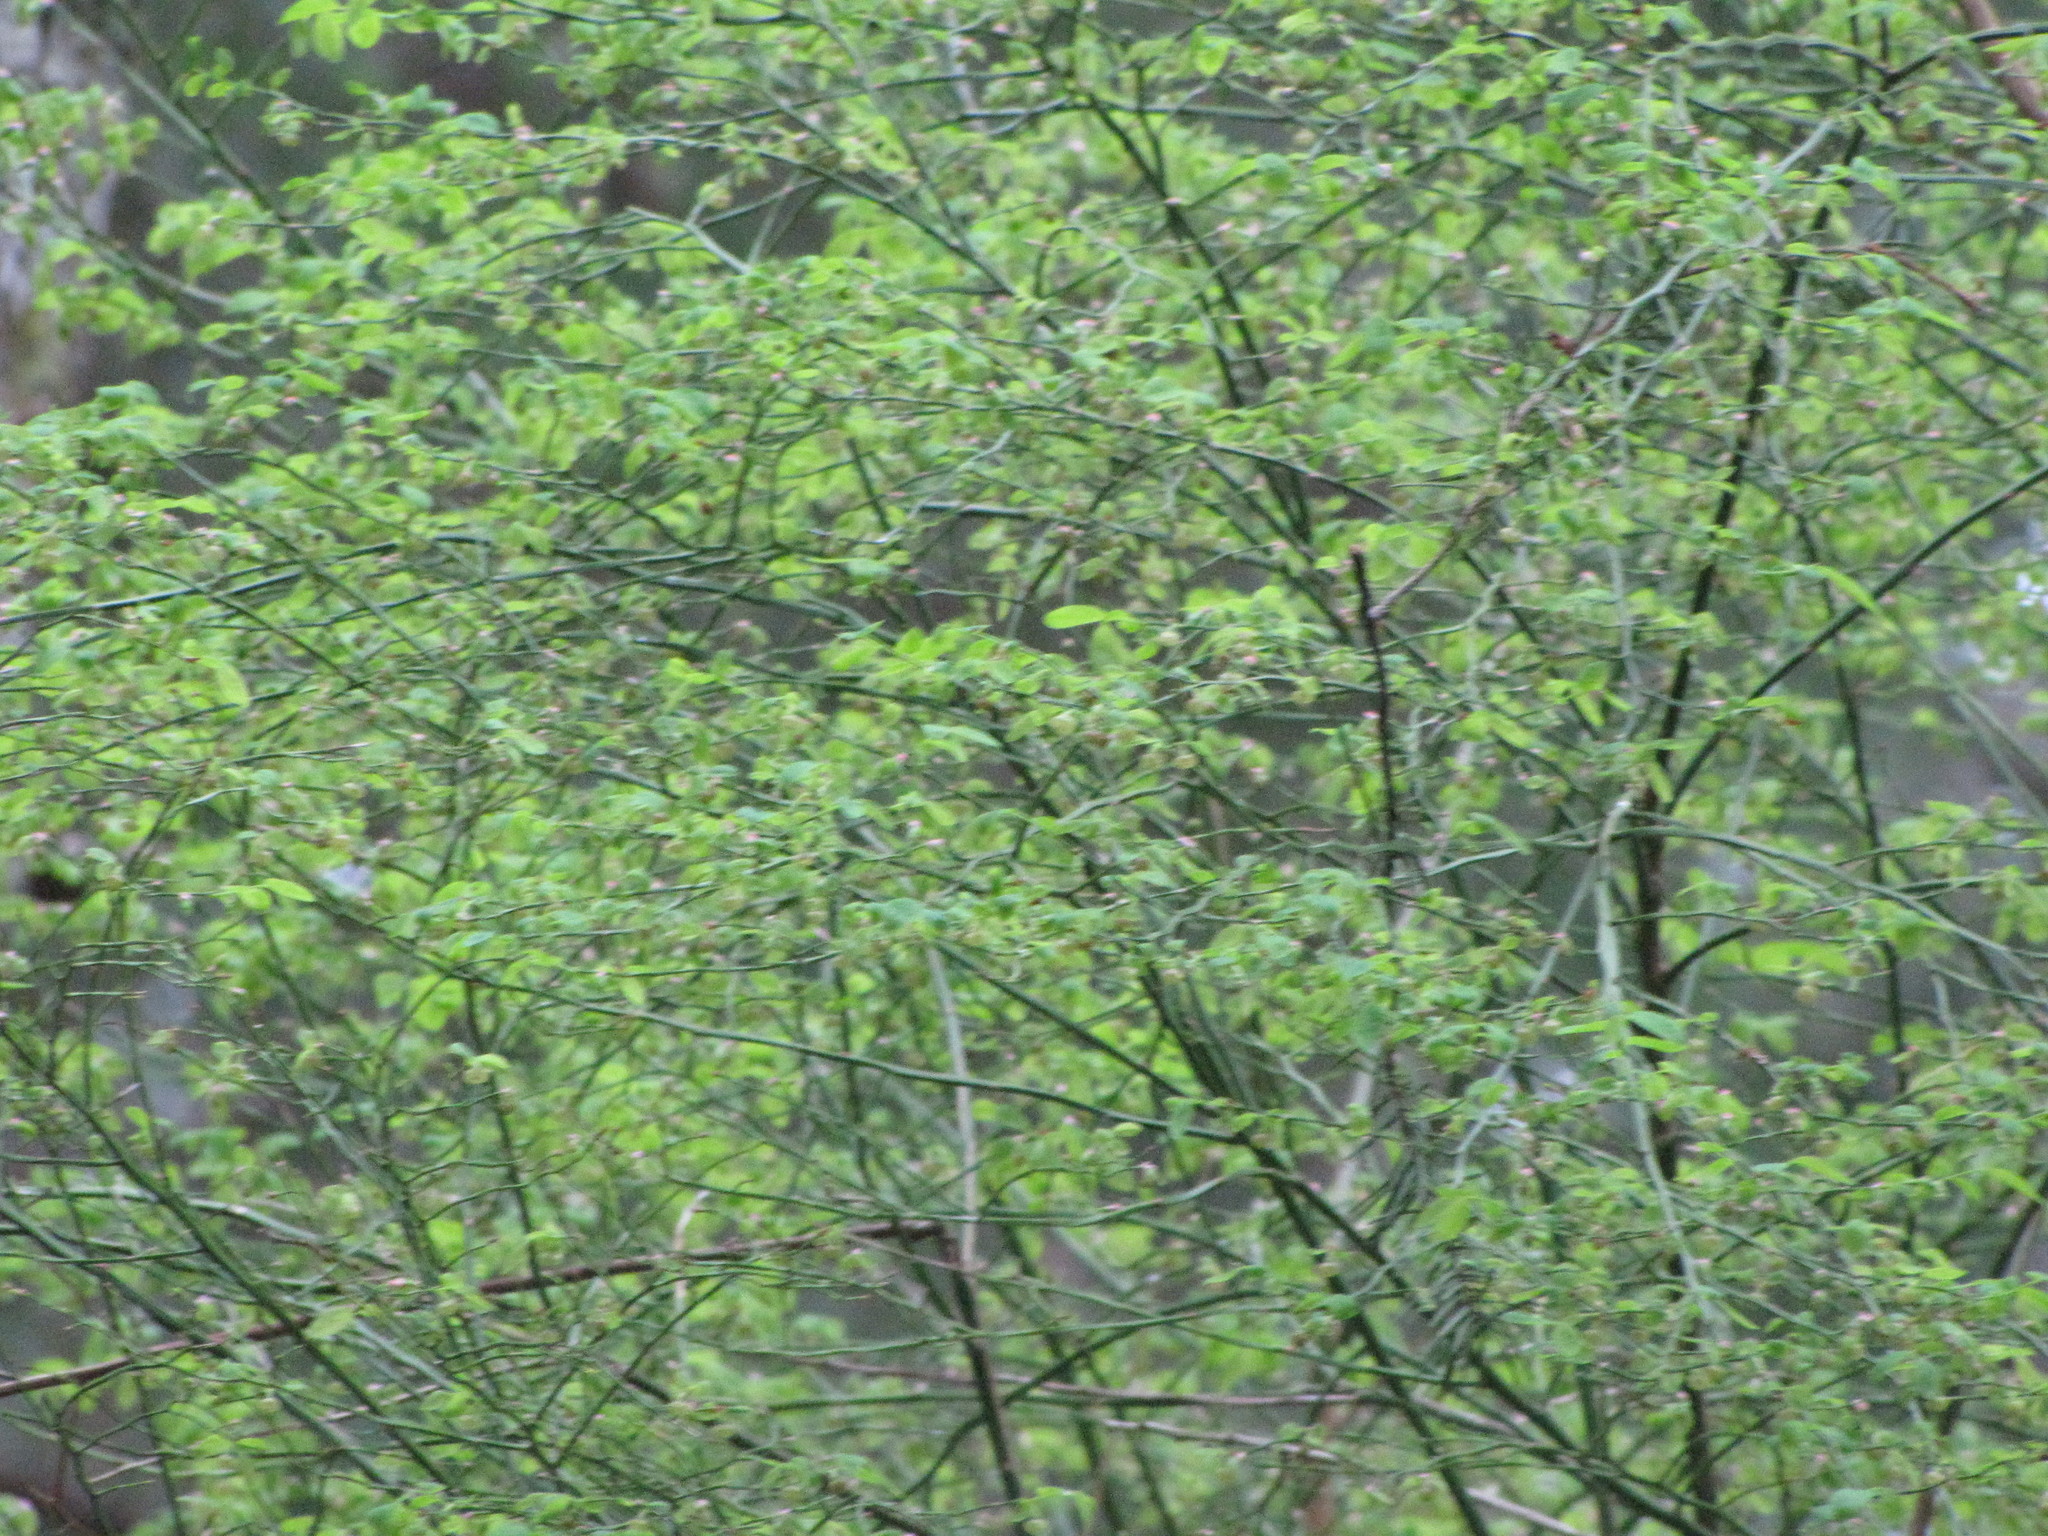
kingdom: Plantae
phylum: Tracheophyta
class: Magnoliopsida
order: Ericales
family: Ericaceae
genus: Vaccinium
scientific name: Vaccinium parvifolium
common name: Red-huckleberry
